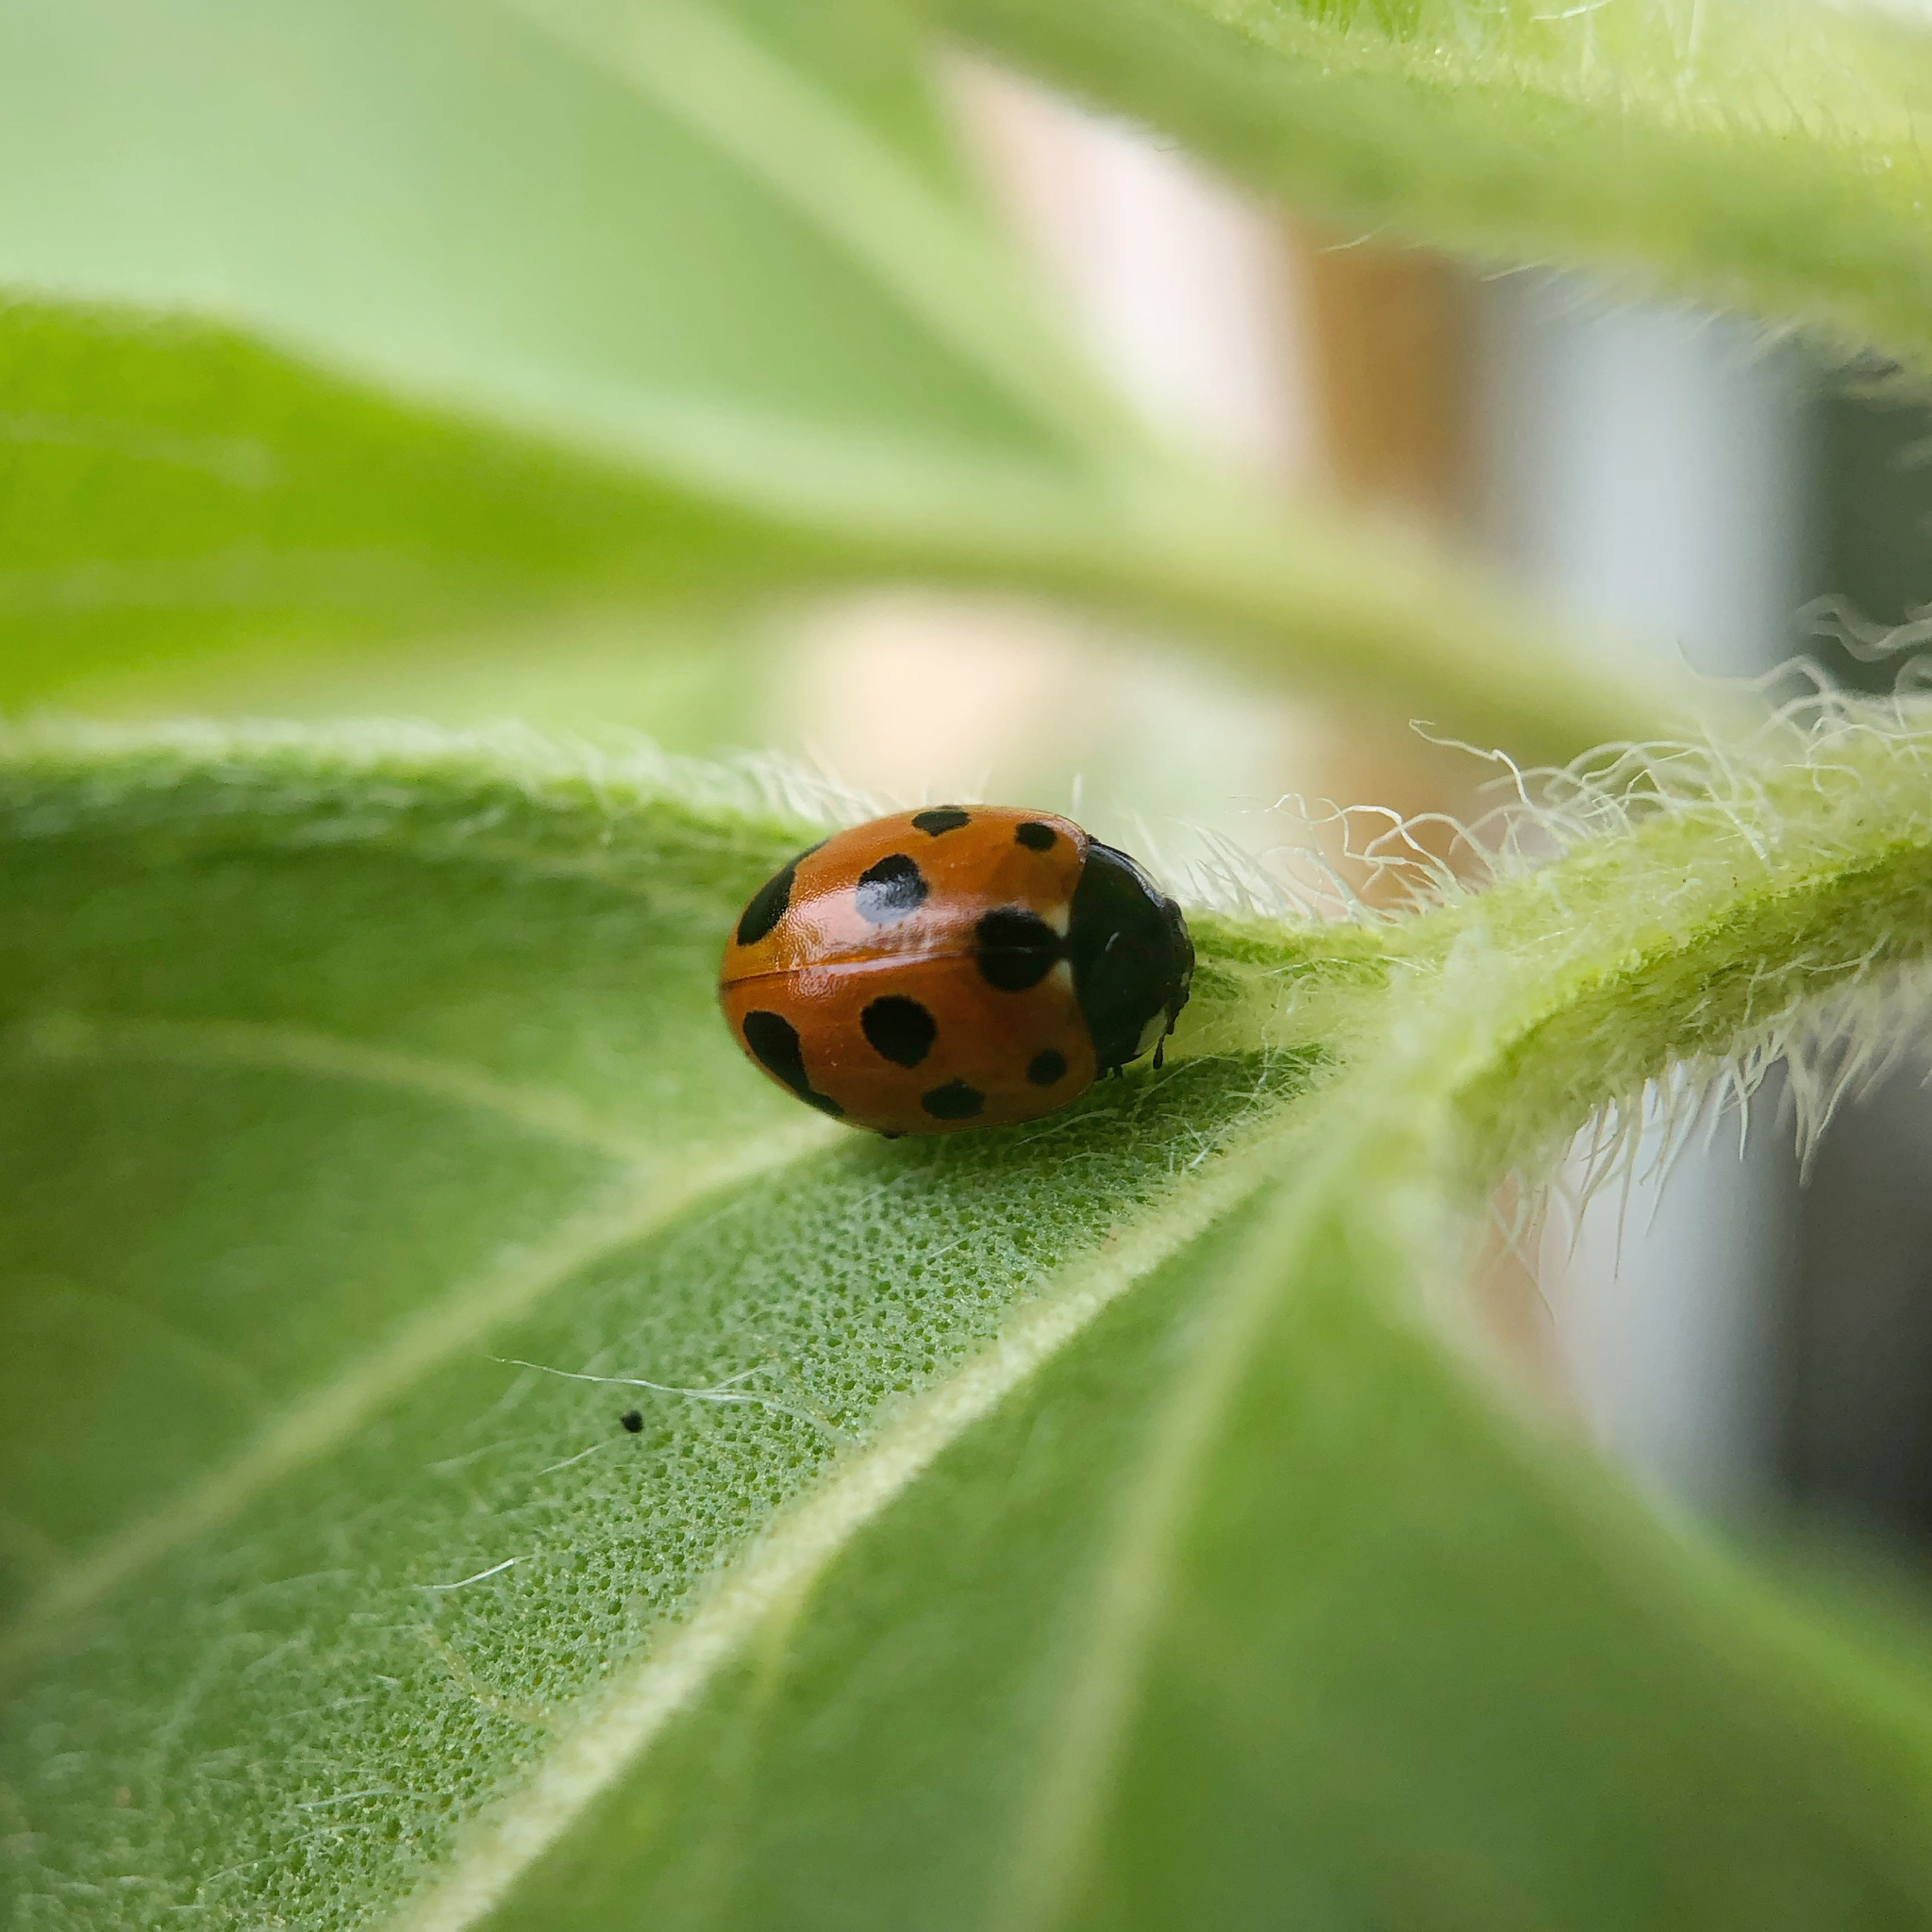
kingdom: Animalia
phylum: Arthropoda
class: Insecta
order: Coleoptera
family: Coccinellidae
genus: Coccinella
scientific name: Coccinella undecimpunctata
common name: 11-spot ladybird
